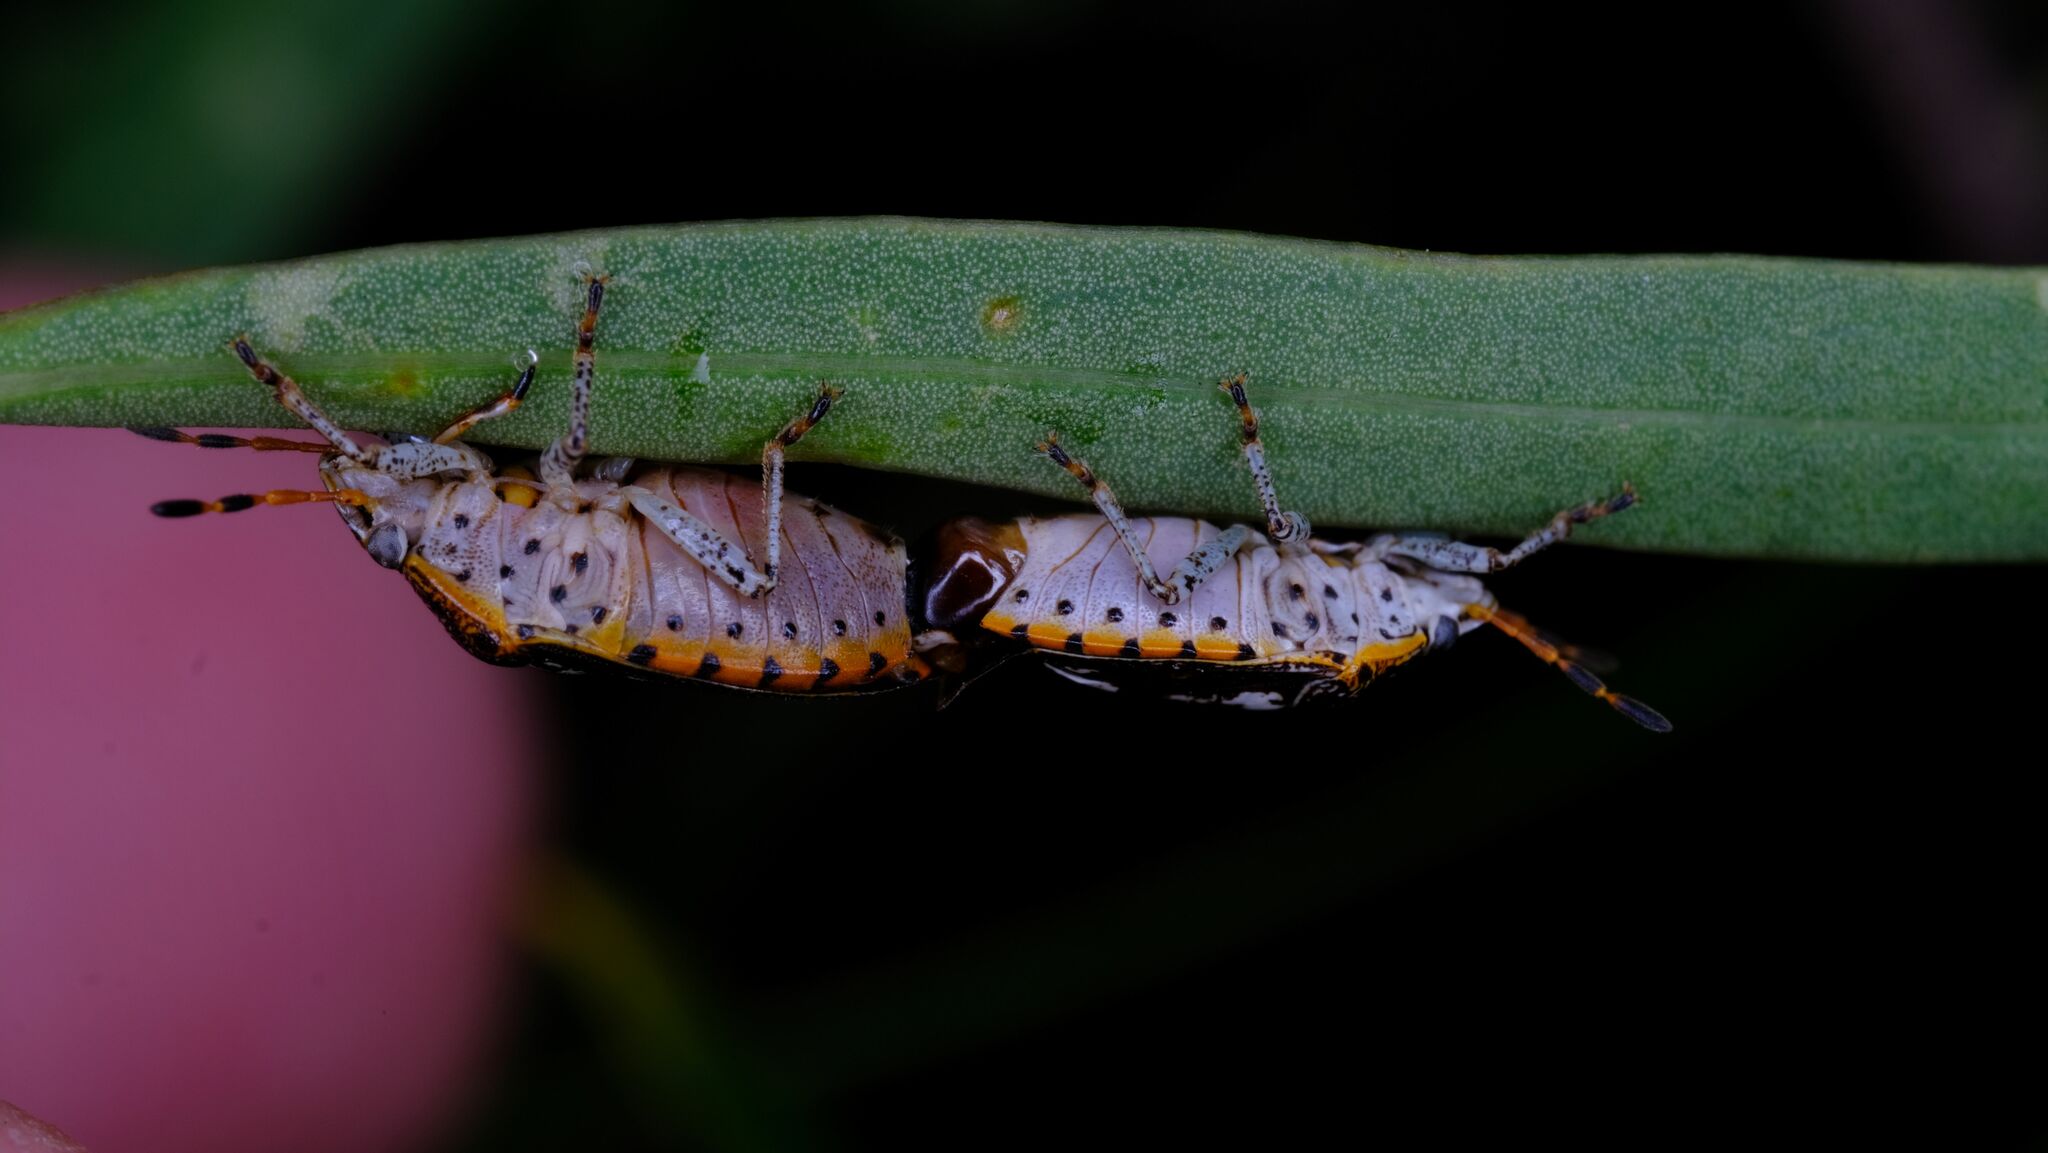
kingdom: Animalia
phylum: Arthropoda
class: Insecta
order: Hemiptera
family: Pentatomidae
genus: Pseudapines
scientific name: Pseudapines
